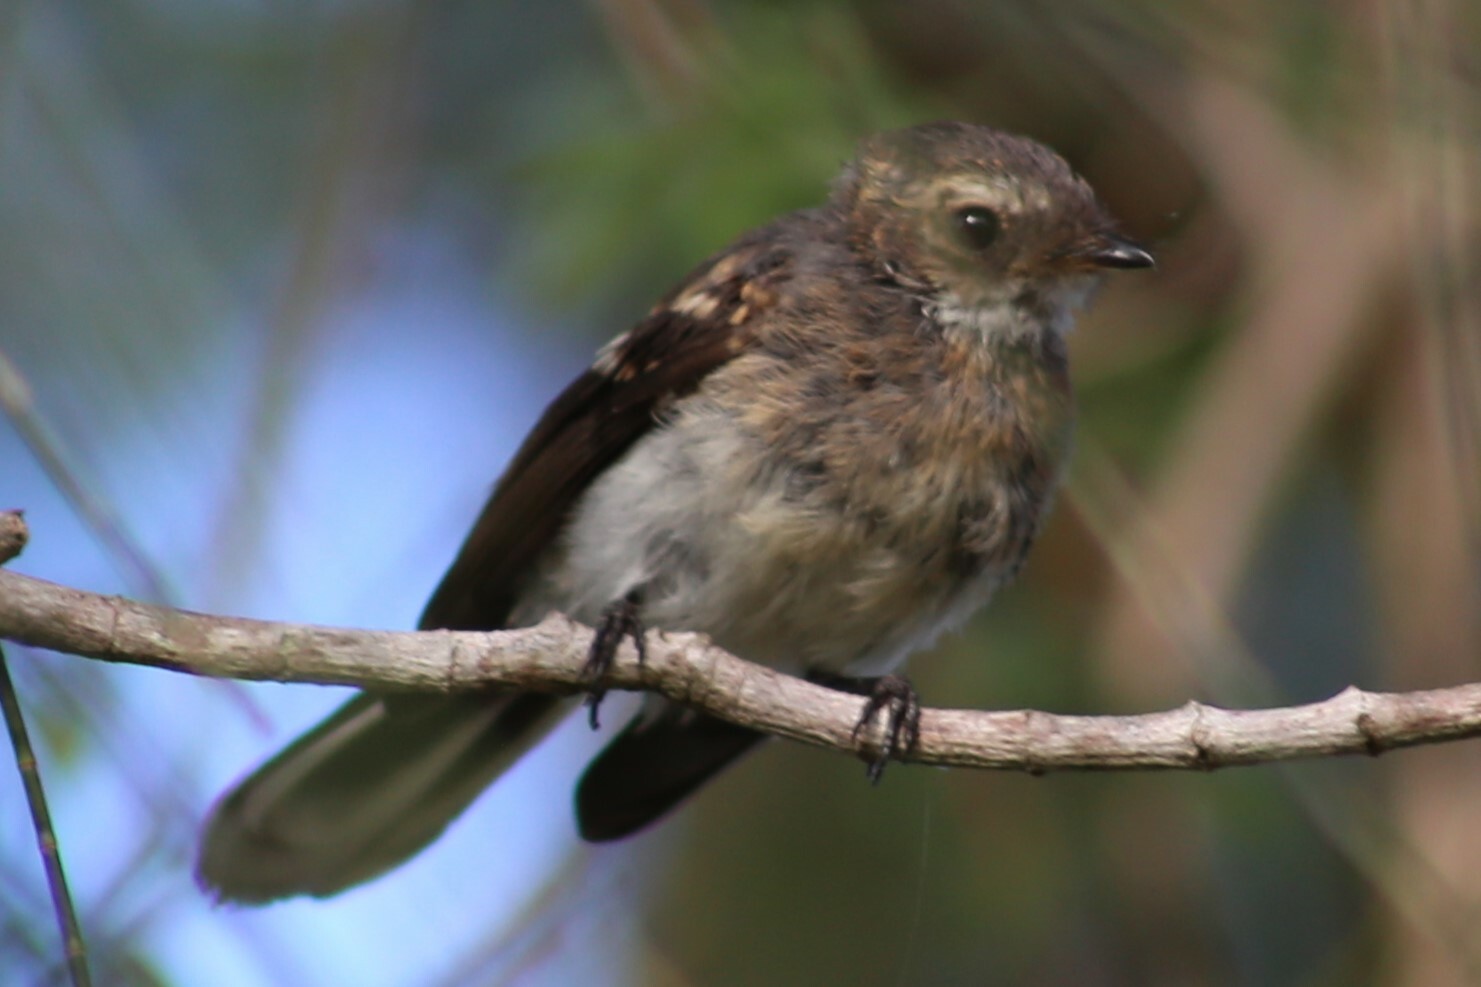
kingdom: Animalia
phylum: Chordata
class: Aves
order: Passeriformes
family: Rhipiduridae
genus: Rhipidura
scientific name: Rhipidura albiscapa
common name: Grey fantail
